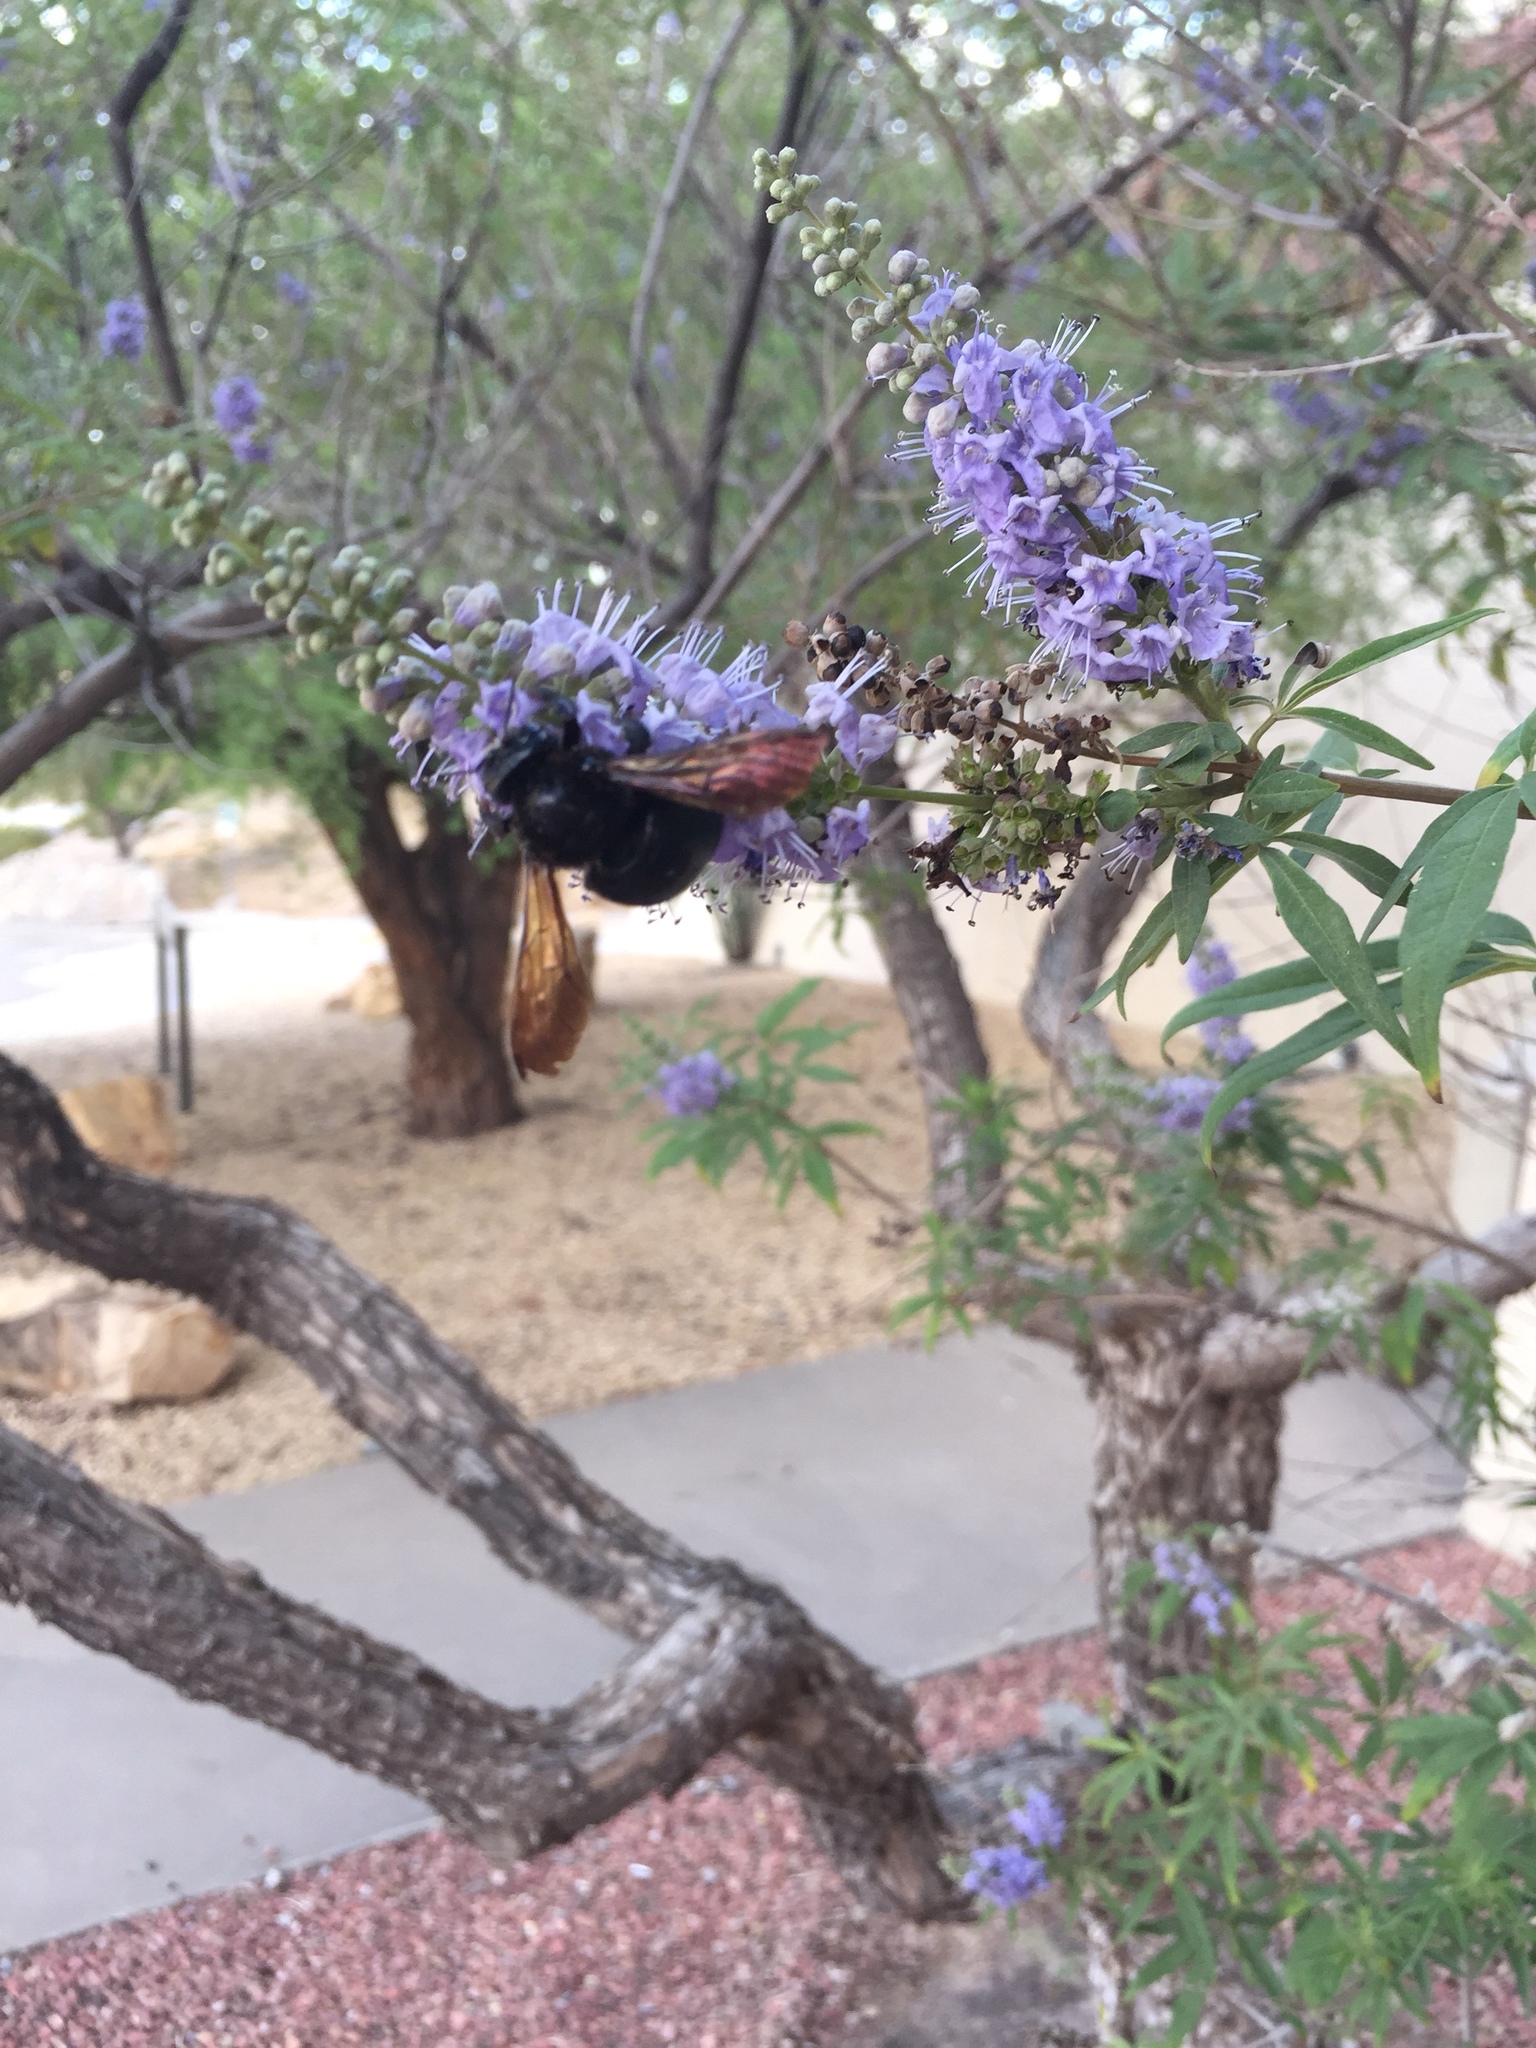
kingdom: Animalia
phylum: Arthropoda
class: Insecta
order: Hymenoptera
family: Apidae
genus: Xylocopa
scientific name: Xylocopa sonorina
